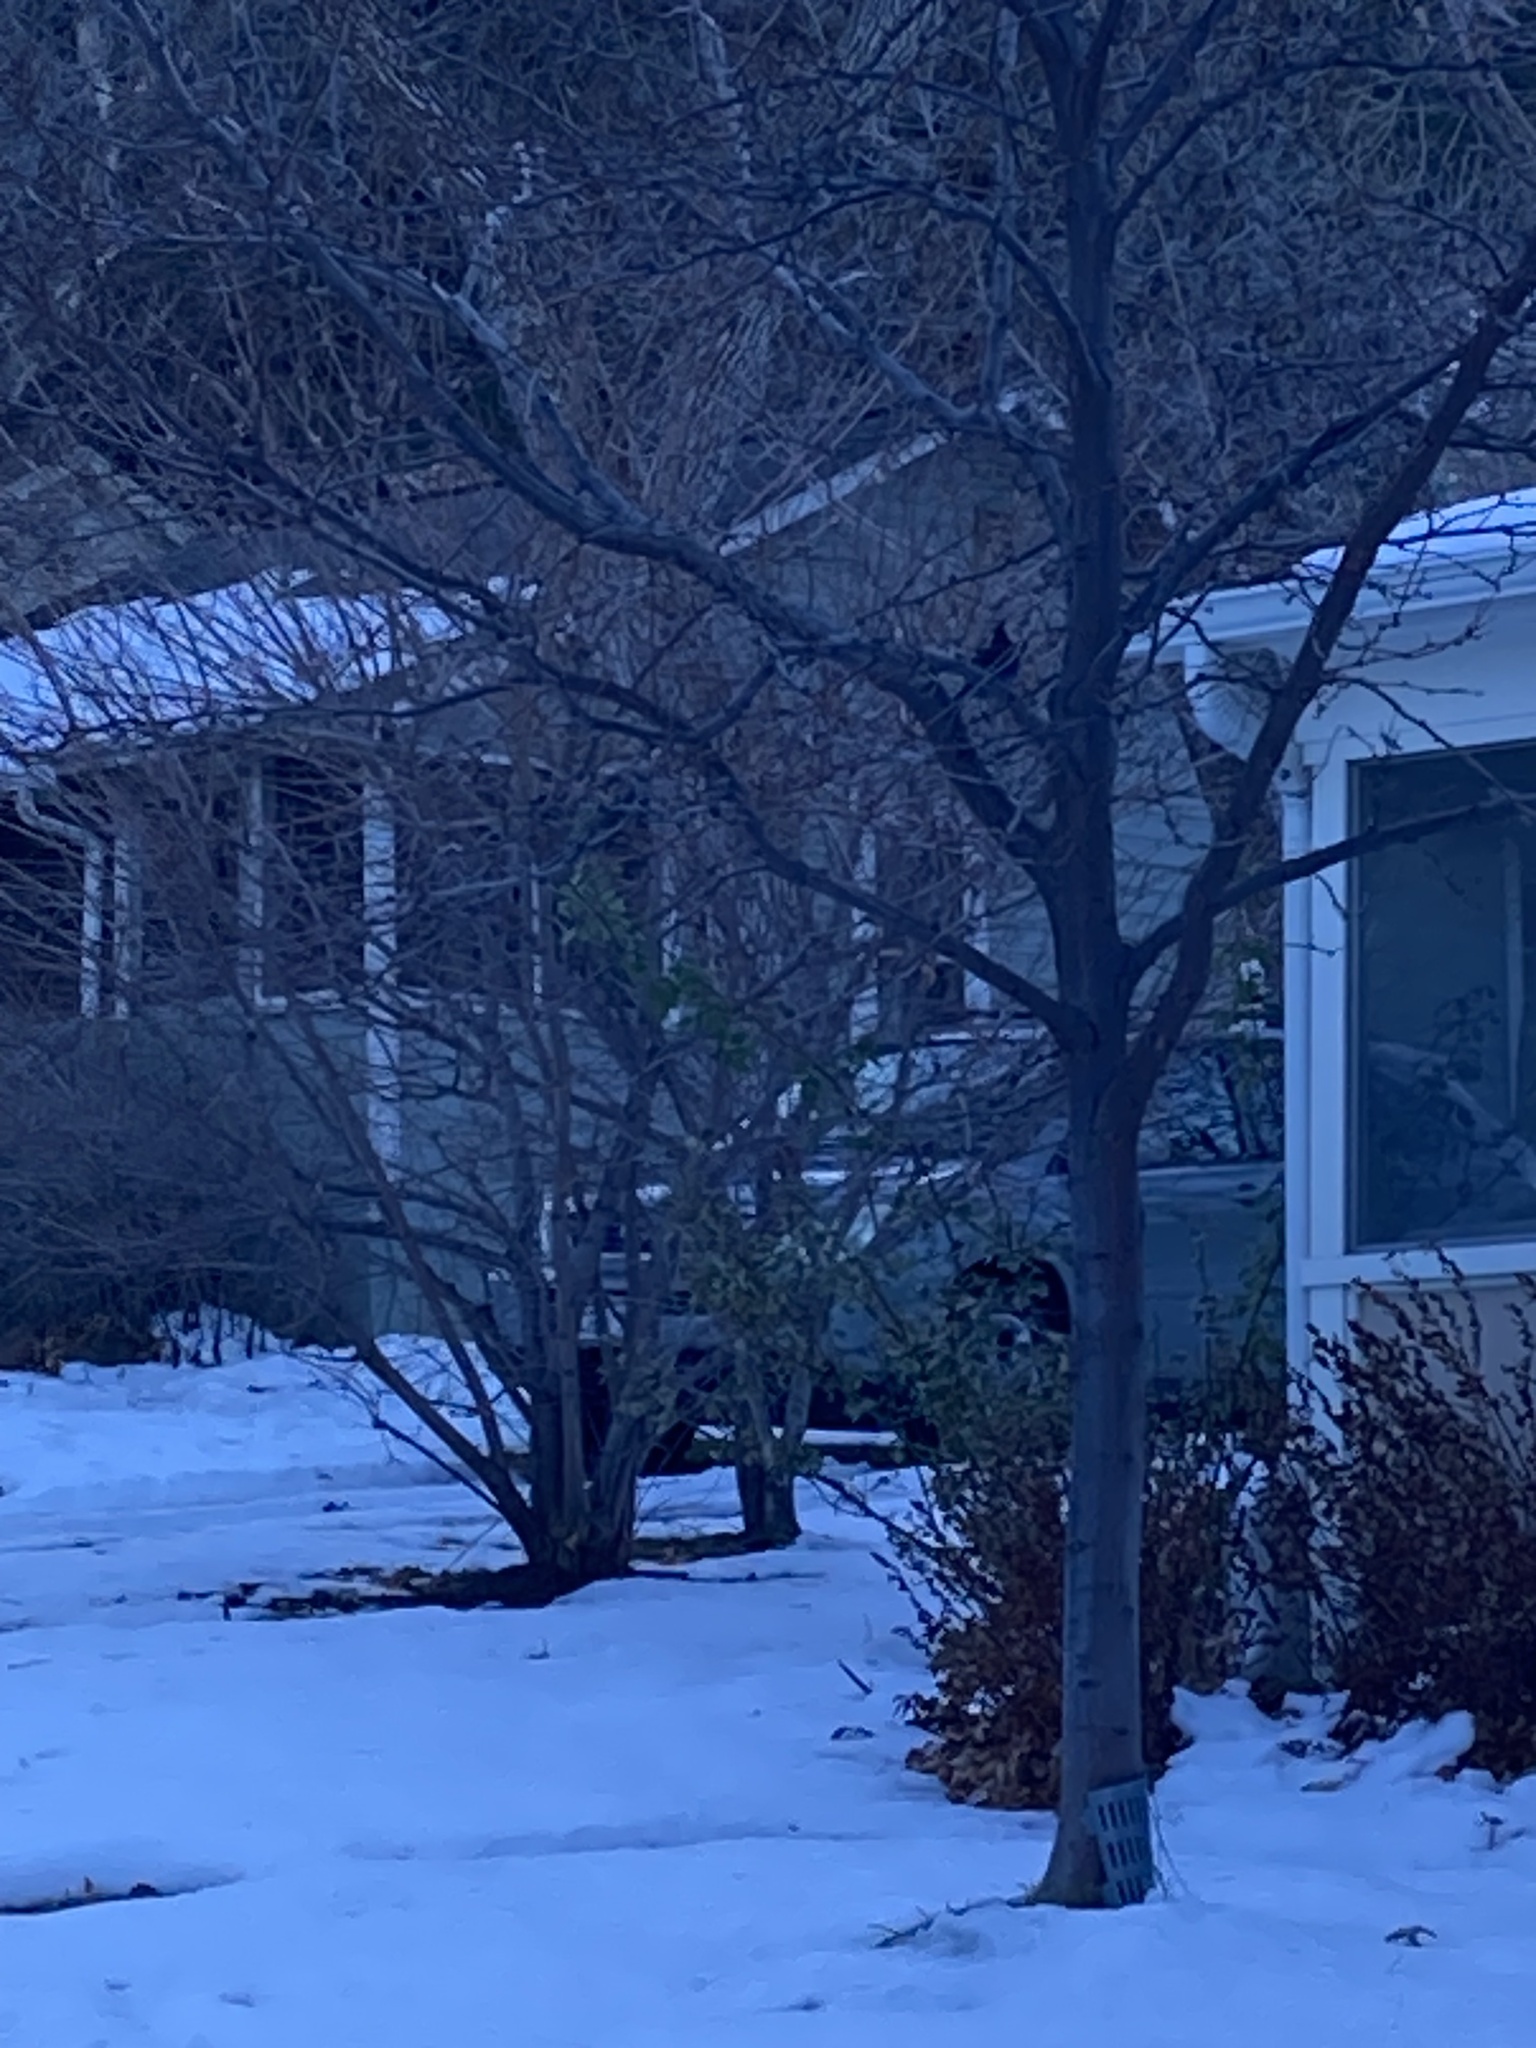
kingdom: Animalia
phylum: Chordata
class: Aves
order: Passeriformes
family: Corvidae
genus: Cyanocitta
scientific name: Cyanocitta stelleri
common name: Steller's jay
